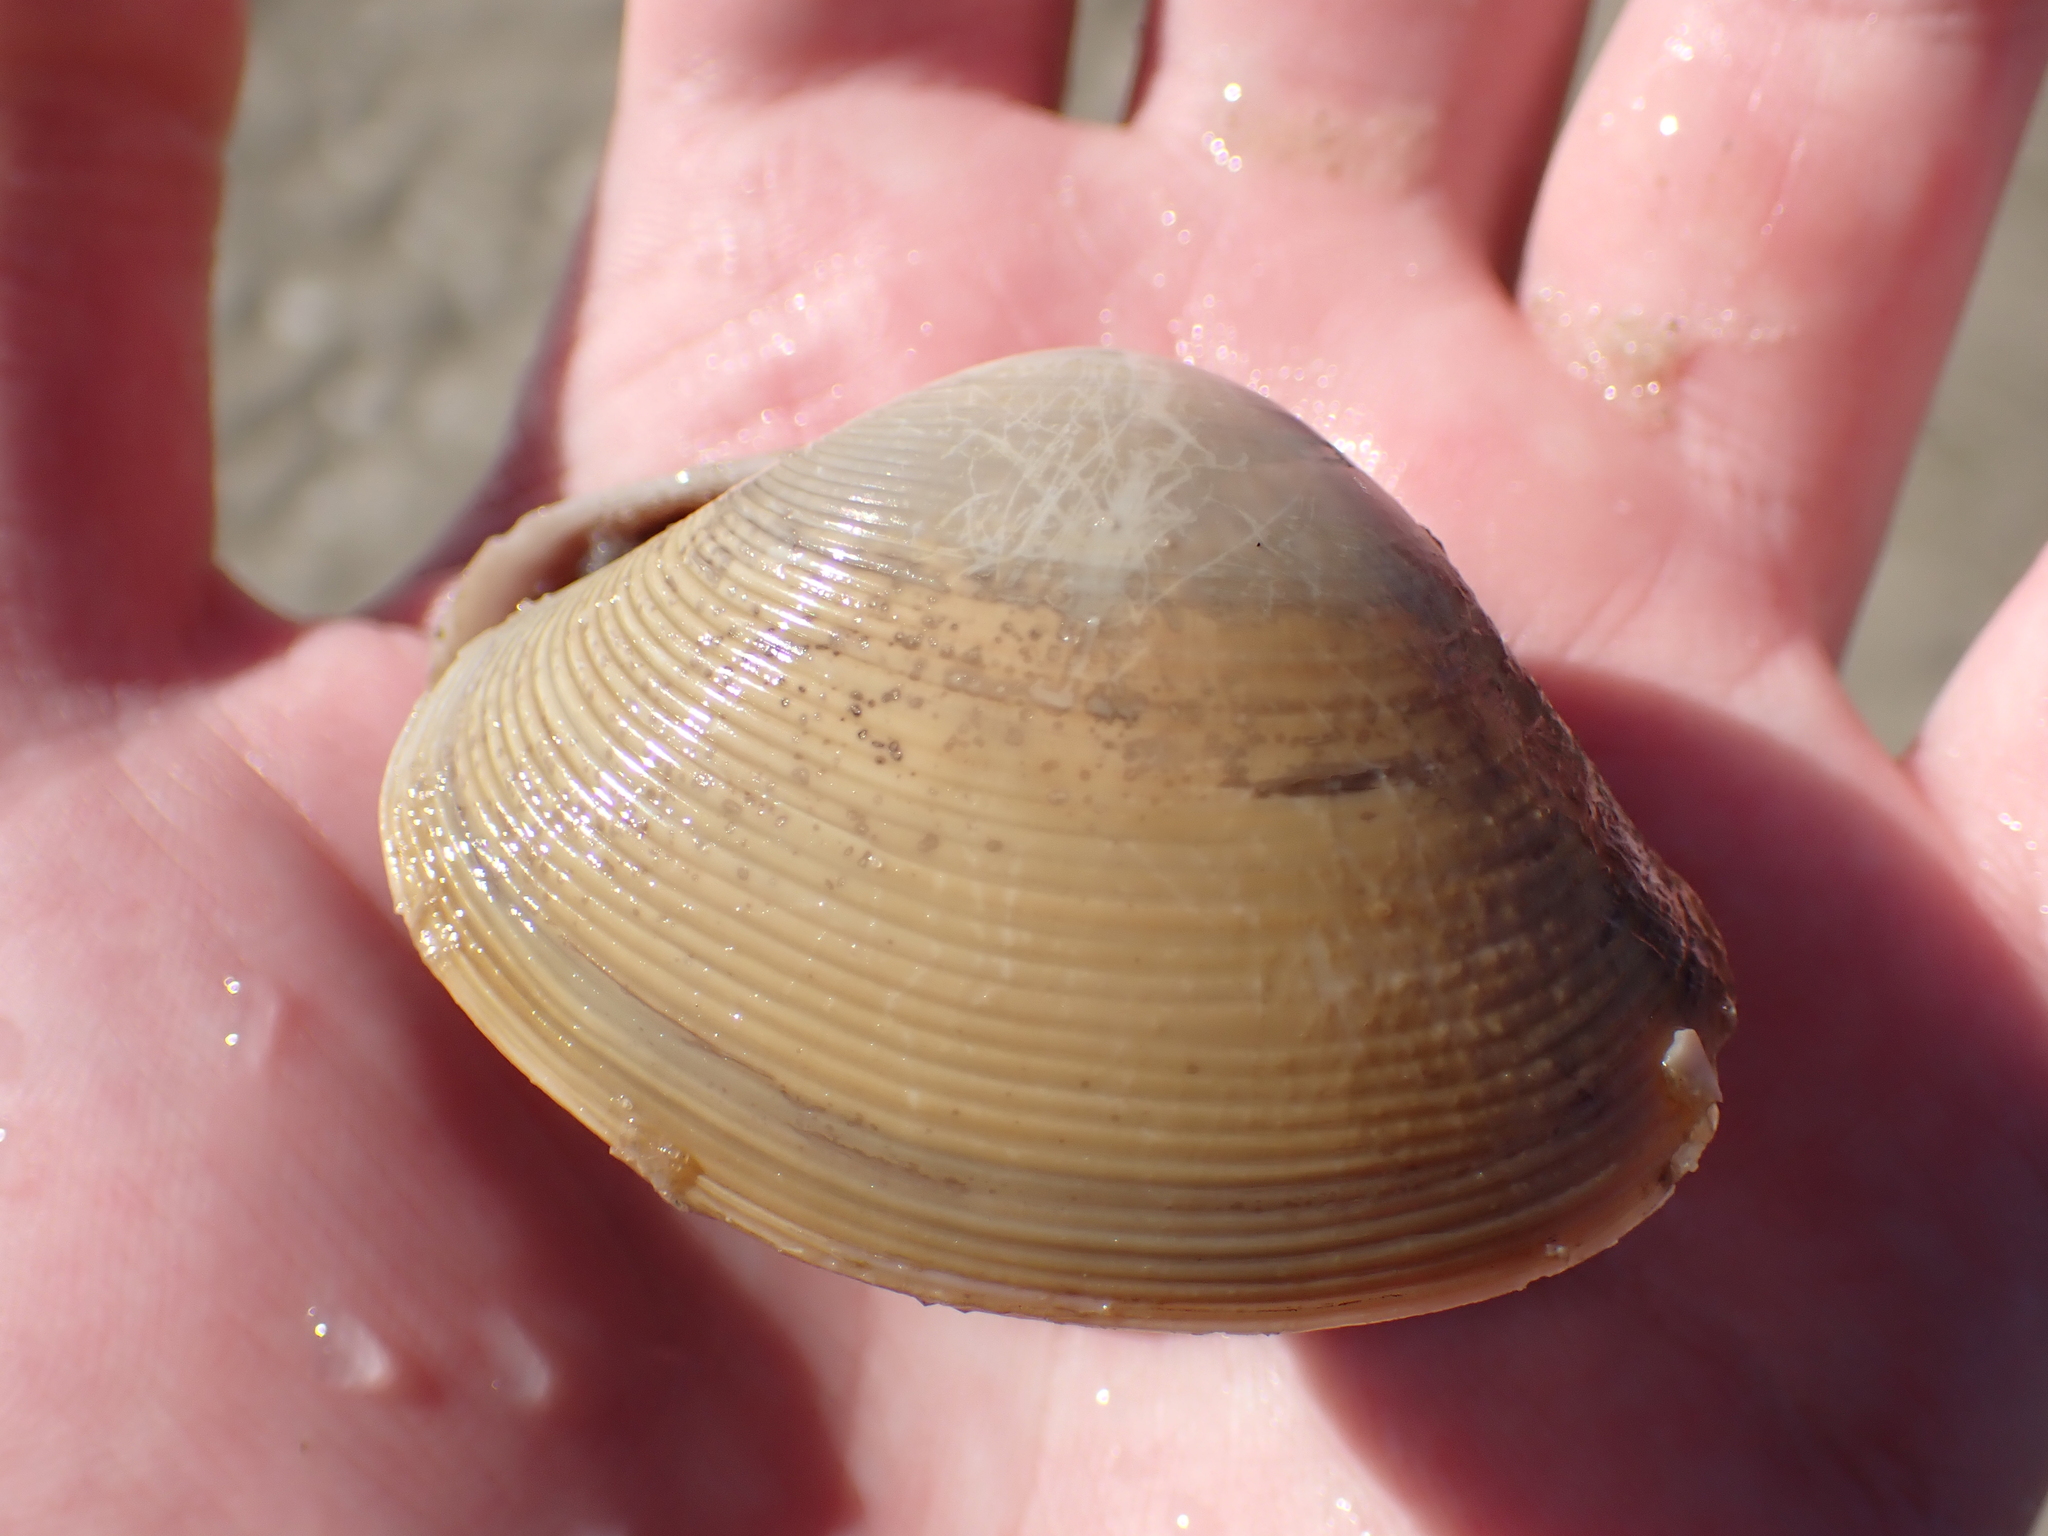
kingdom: Animalia
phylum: Mollusca
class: Bivalvia
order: Cardiida
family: Donacidae
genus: Latona
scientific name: Latona deltoides
